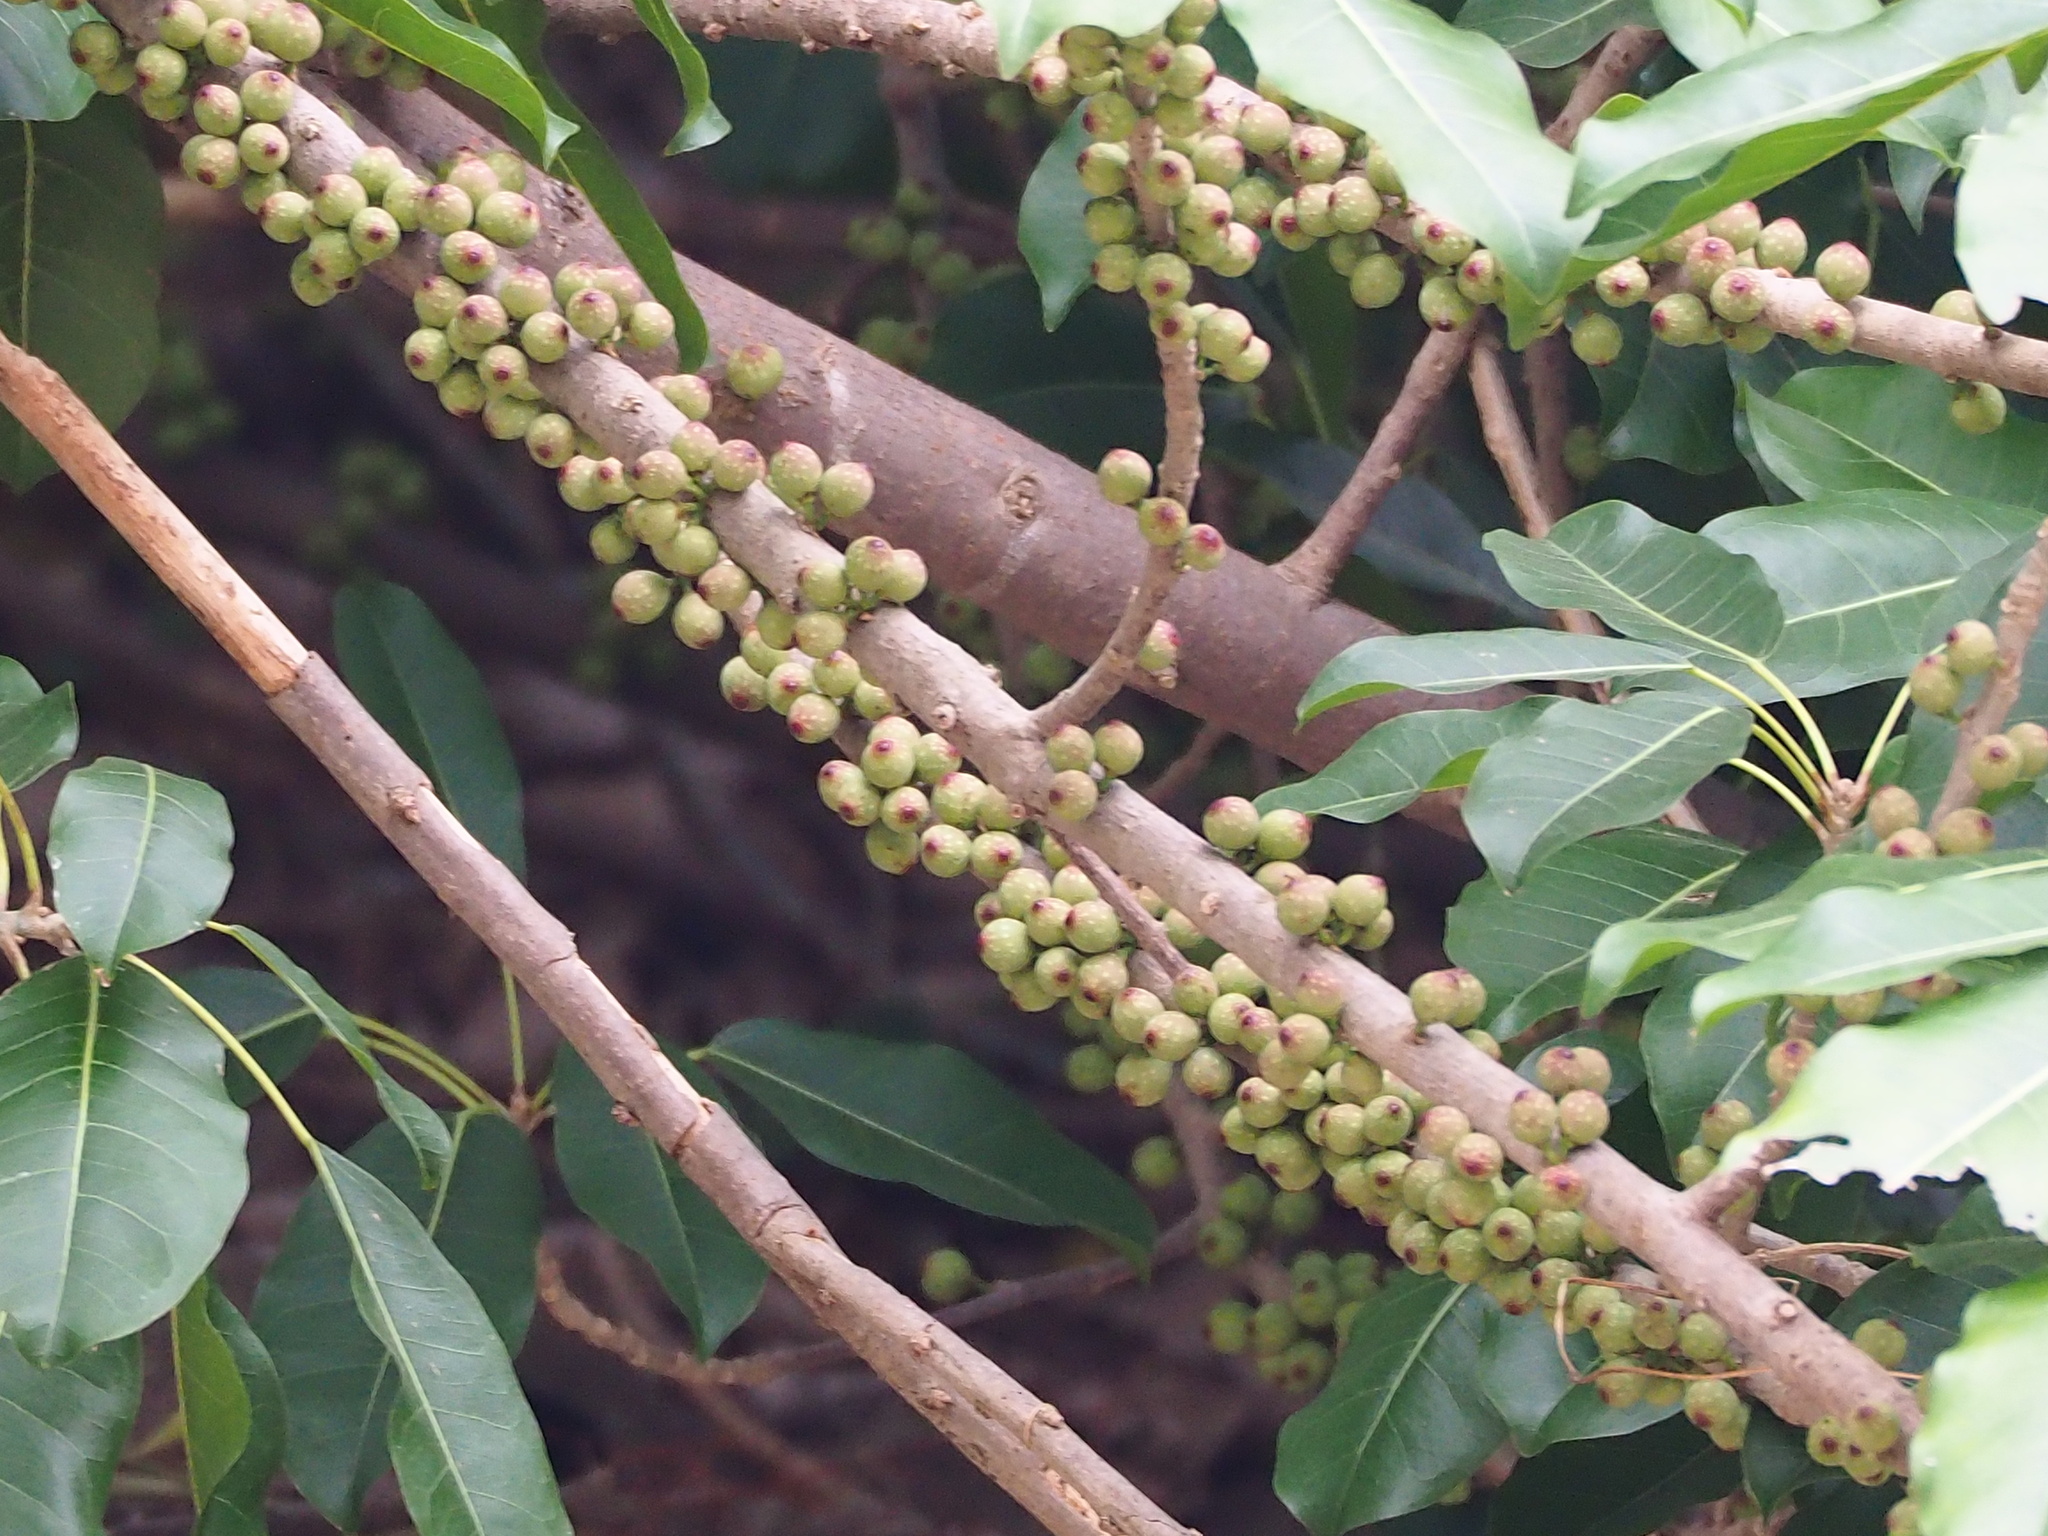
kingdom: Plantae
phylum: Tracheophyta
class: Magnoliopsida
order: Rosales
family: Moraceae
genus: Ficus
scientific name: Ficus subpisocarpa
